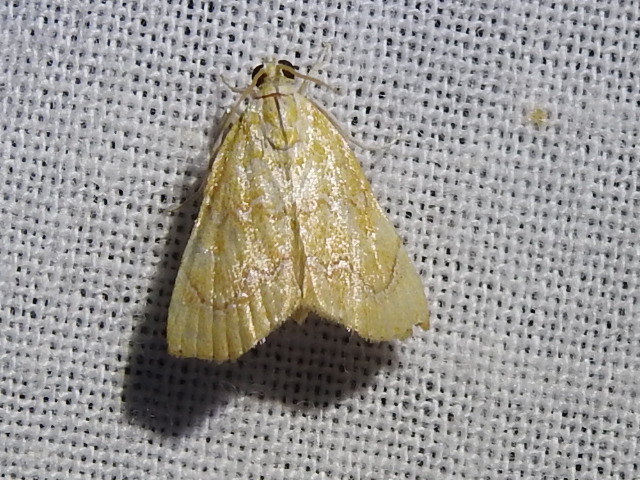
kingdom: Animalia
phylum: Arthropoda
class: Insecta
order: Lepidoptera
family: Crambidae
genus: Glaphyria
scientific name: Glaphyria sesquistrialis
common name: White-roped glaphyria
